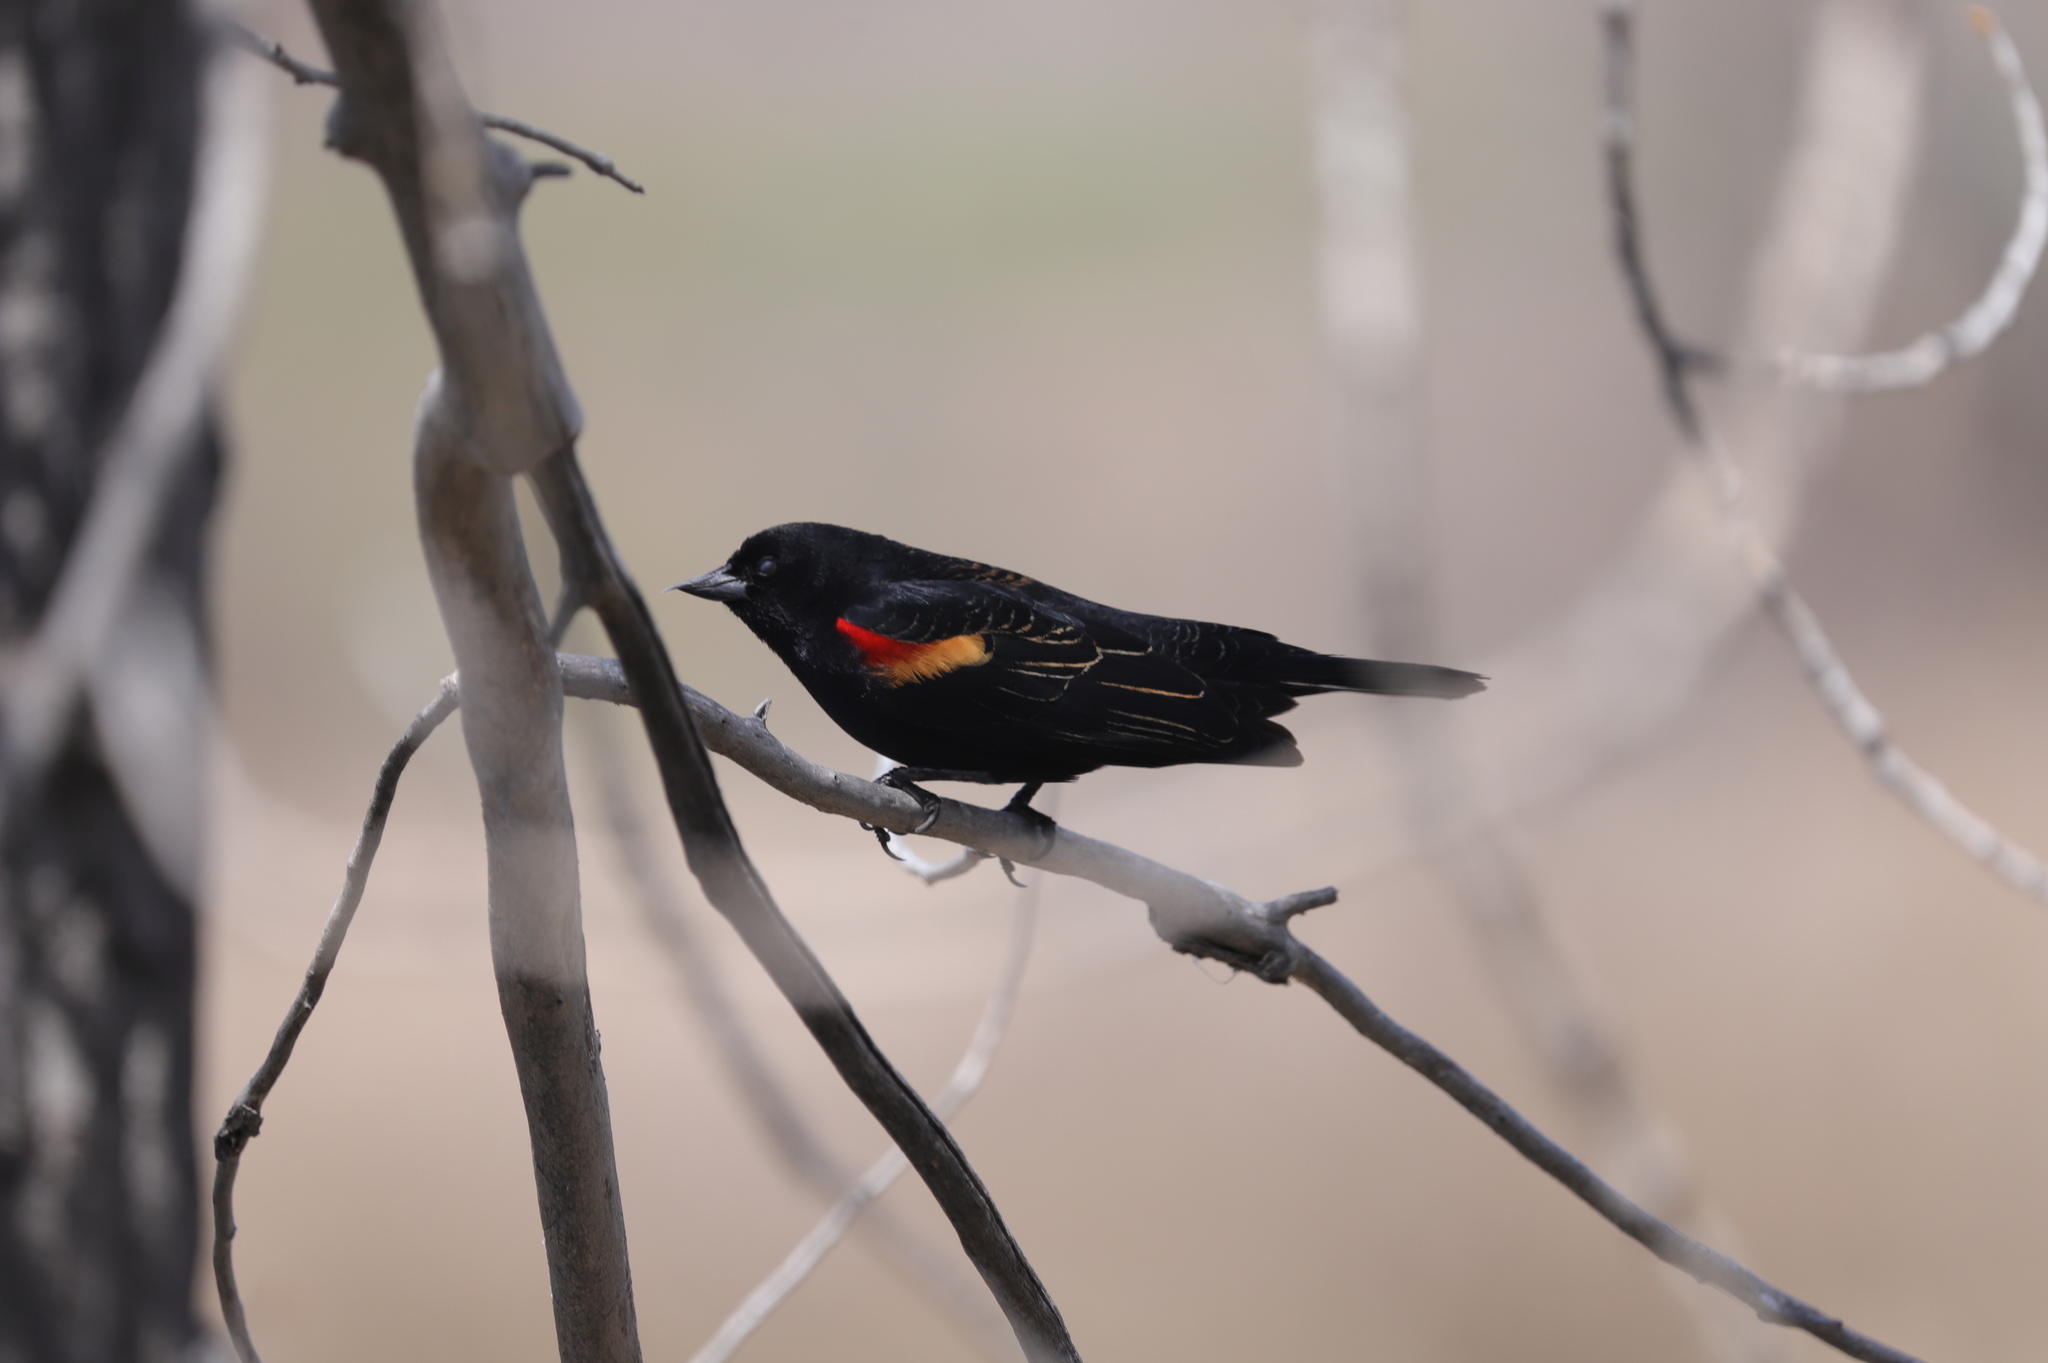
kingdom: Animalia
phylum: Chordata
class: Aves
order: Passeriformes
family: Icteridae
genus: Agelaius
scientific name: Agelaius phoeniceus
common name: Red-winged blackbird
